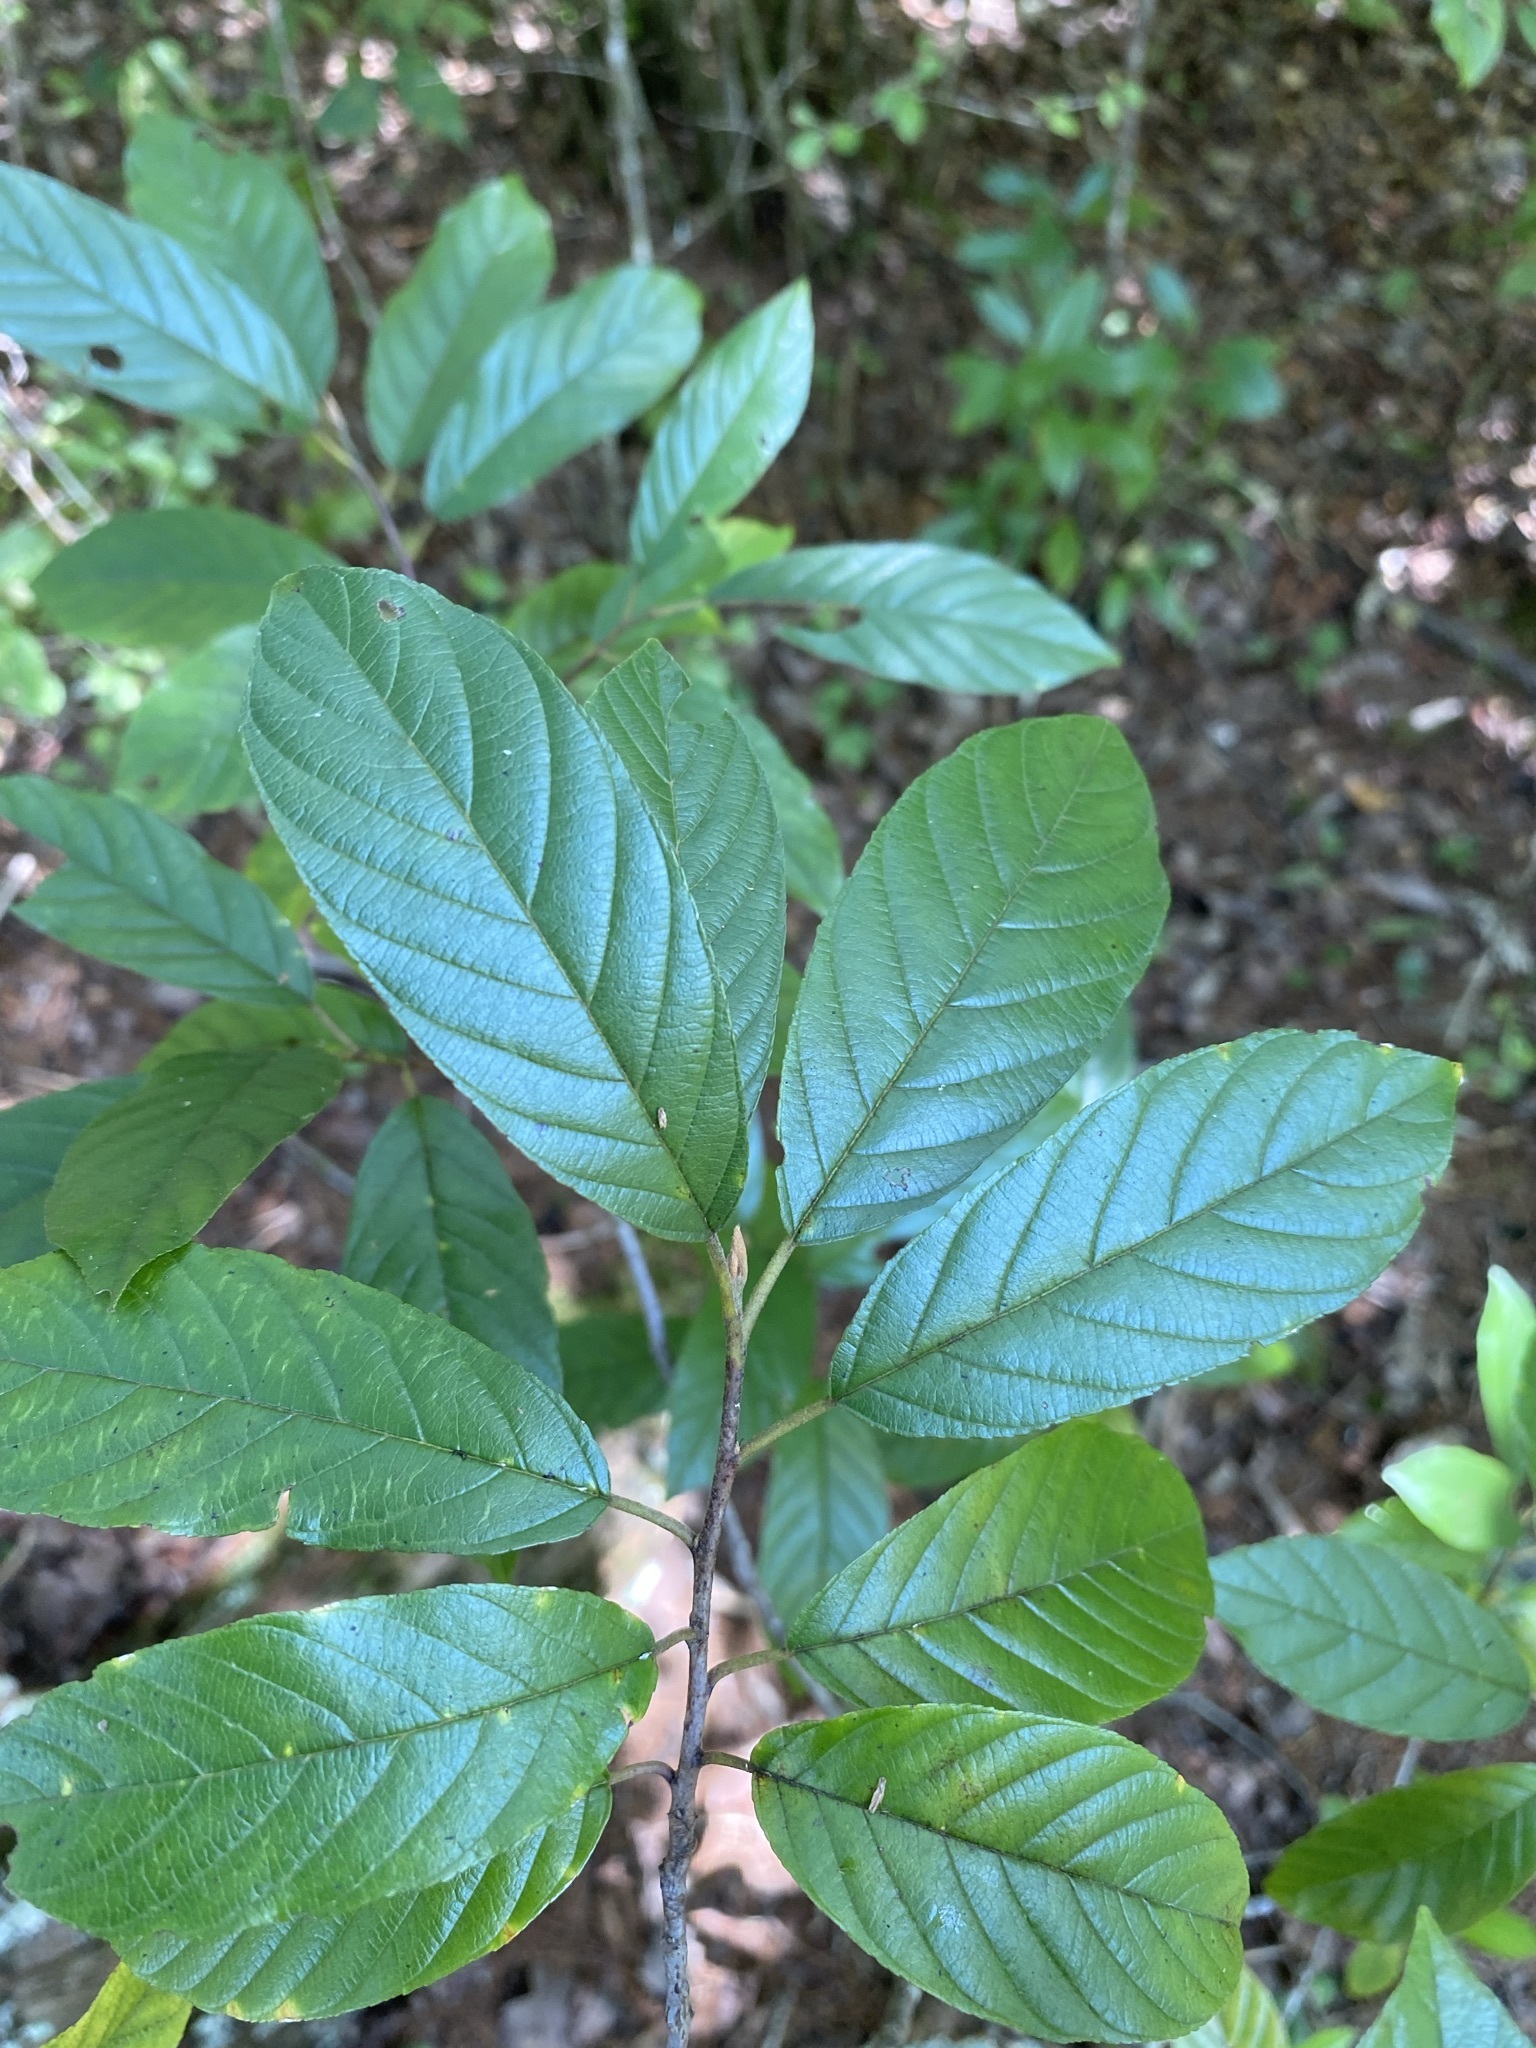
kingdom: Plantae
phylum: Tracheophyta
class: Magnoliopsida
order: Rosales
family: Rhamnaceae
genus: Frangula
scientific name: Frangula caroliniana
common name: Carolina buckthorn
